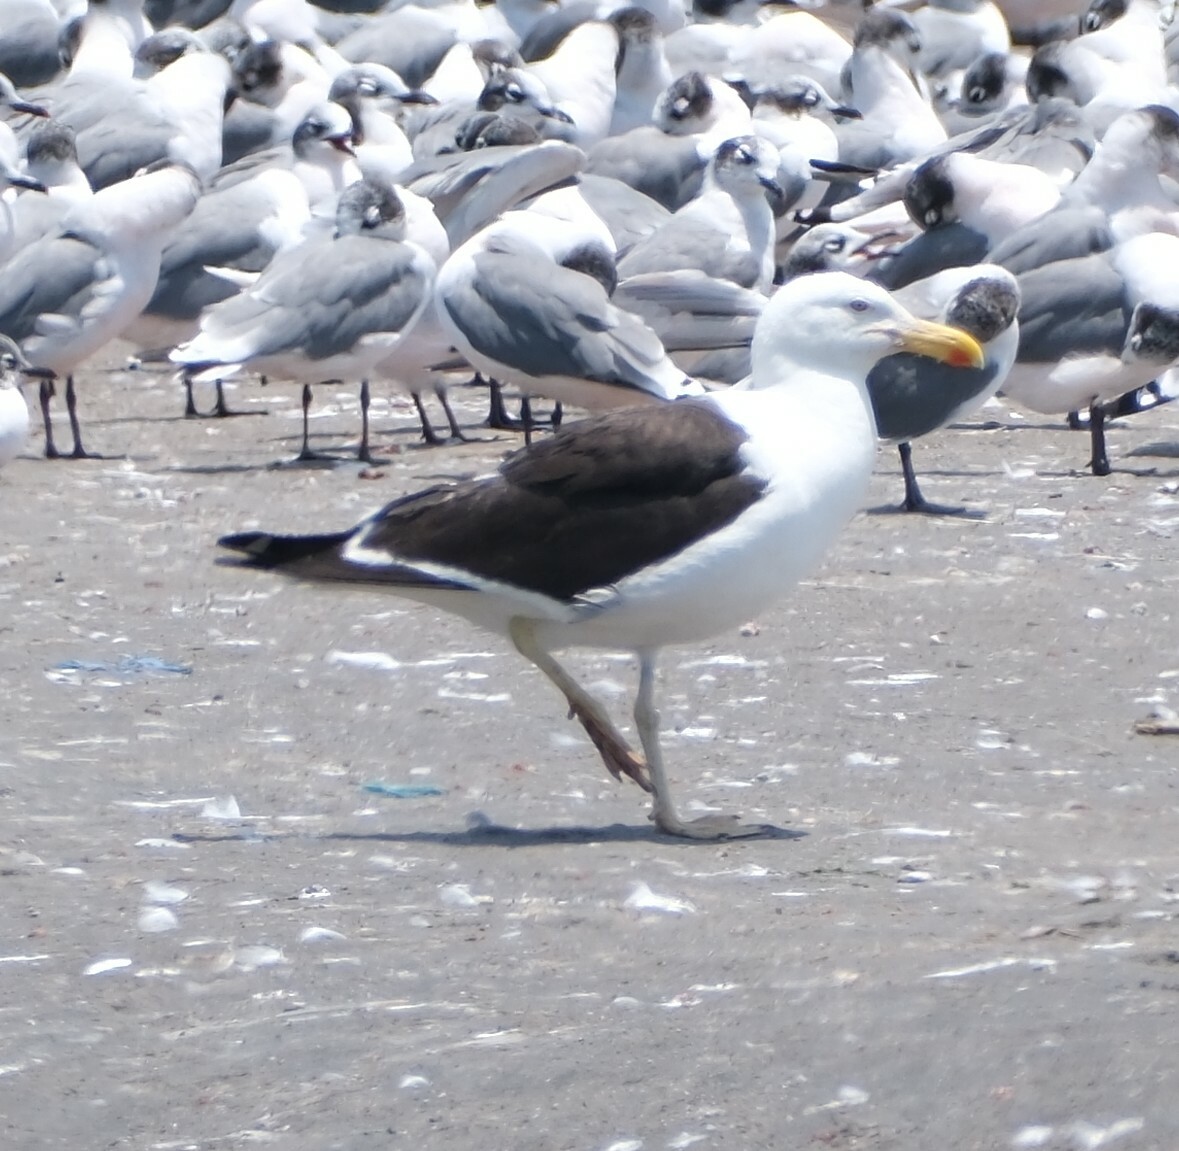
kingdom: Animalia
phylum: Chordata
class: Aves
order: Charadriiformes
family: Laridae
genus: Larus
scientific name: Larus dominicanus
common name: Kelp gull
